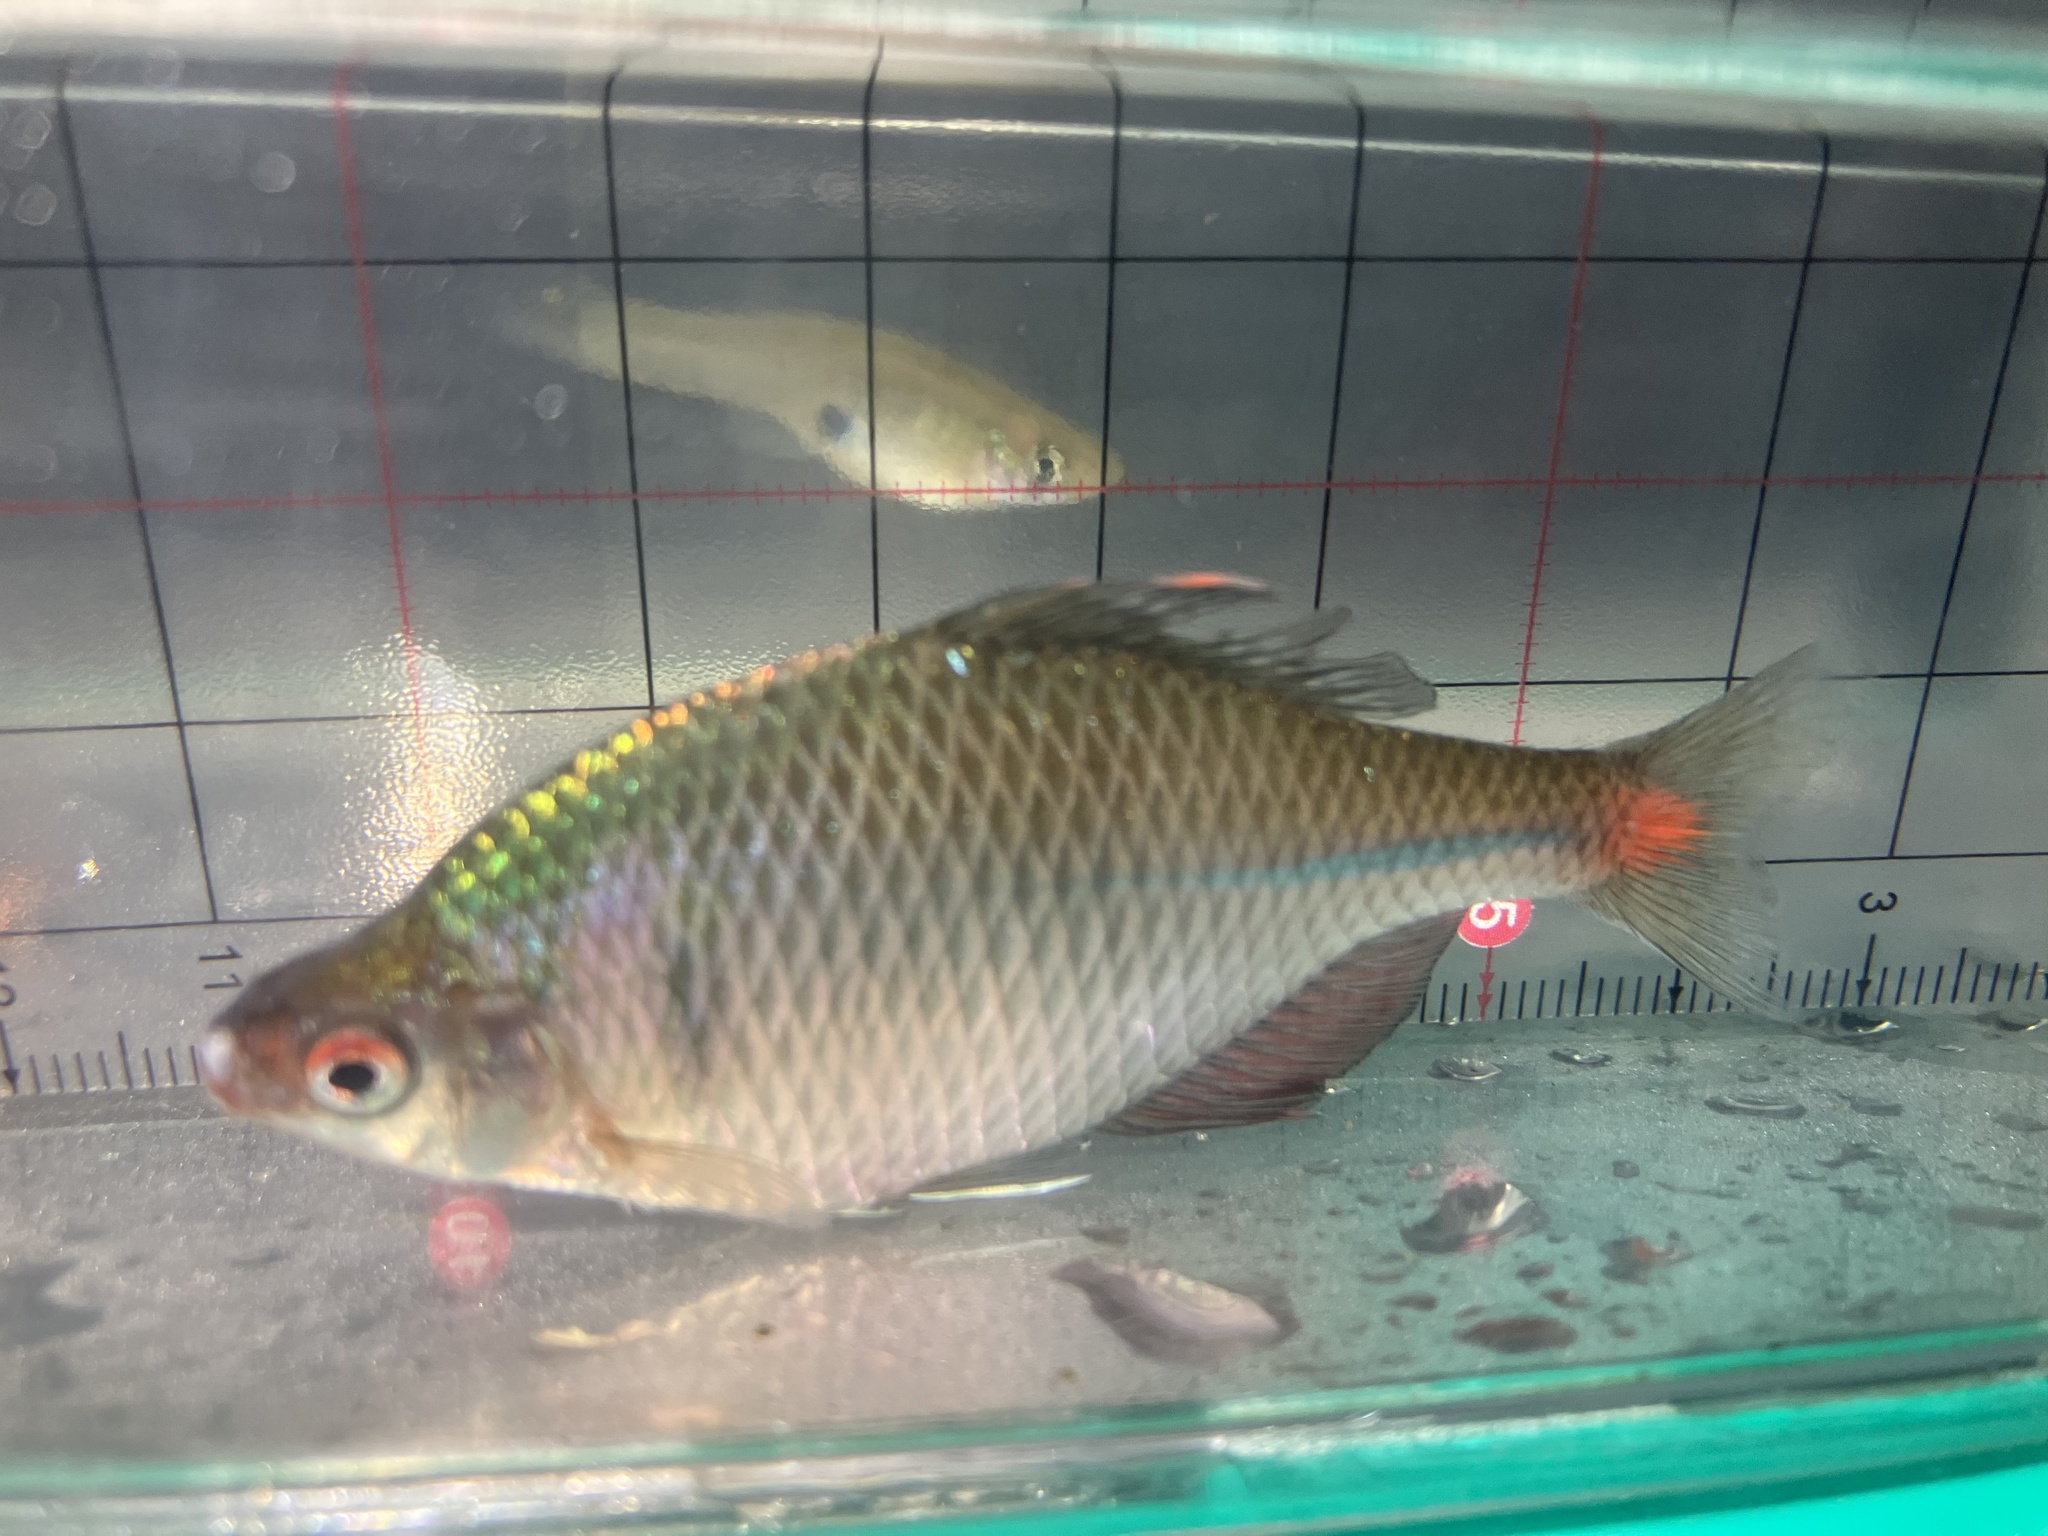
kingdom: Animalia
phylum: Chordata
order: Cypriniformes
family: Cyprinidae
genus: Rhodeus
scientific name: Rhodeus ocellatus
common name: Rose bitterling
